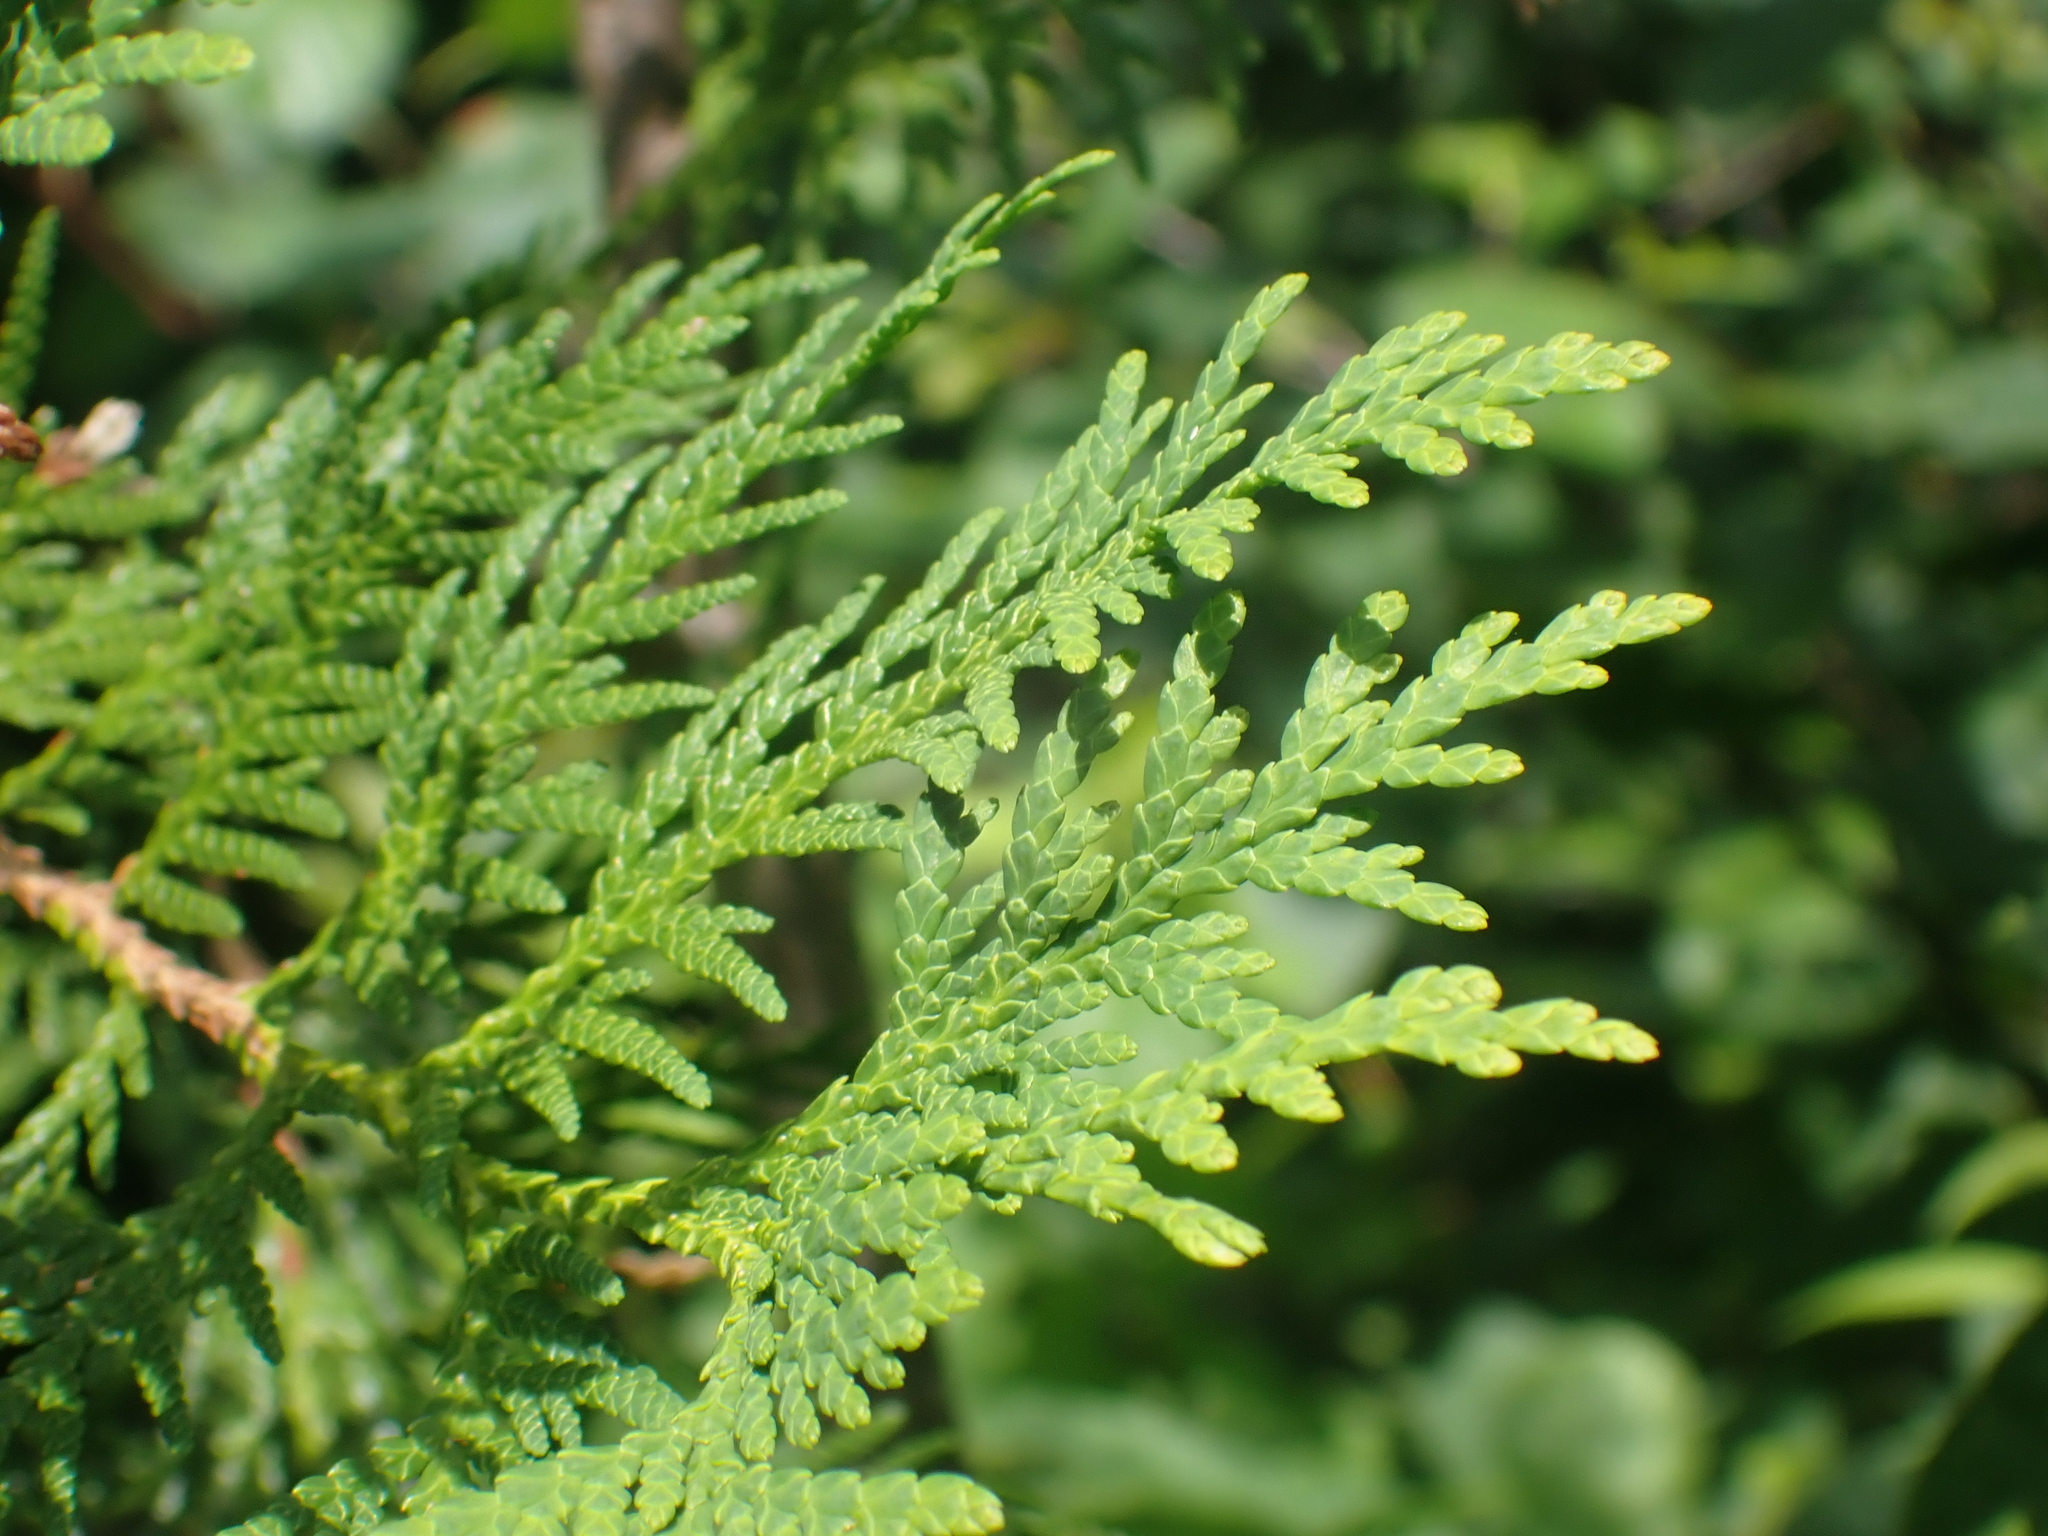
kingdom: Plantae
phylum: Tracheophyta
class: Pinopsida
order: Pinales
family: Cupressaceae
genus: Thuja
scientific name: Thuja occidentalis
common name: Northern white-cedar
